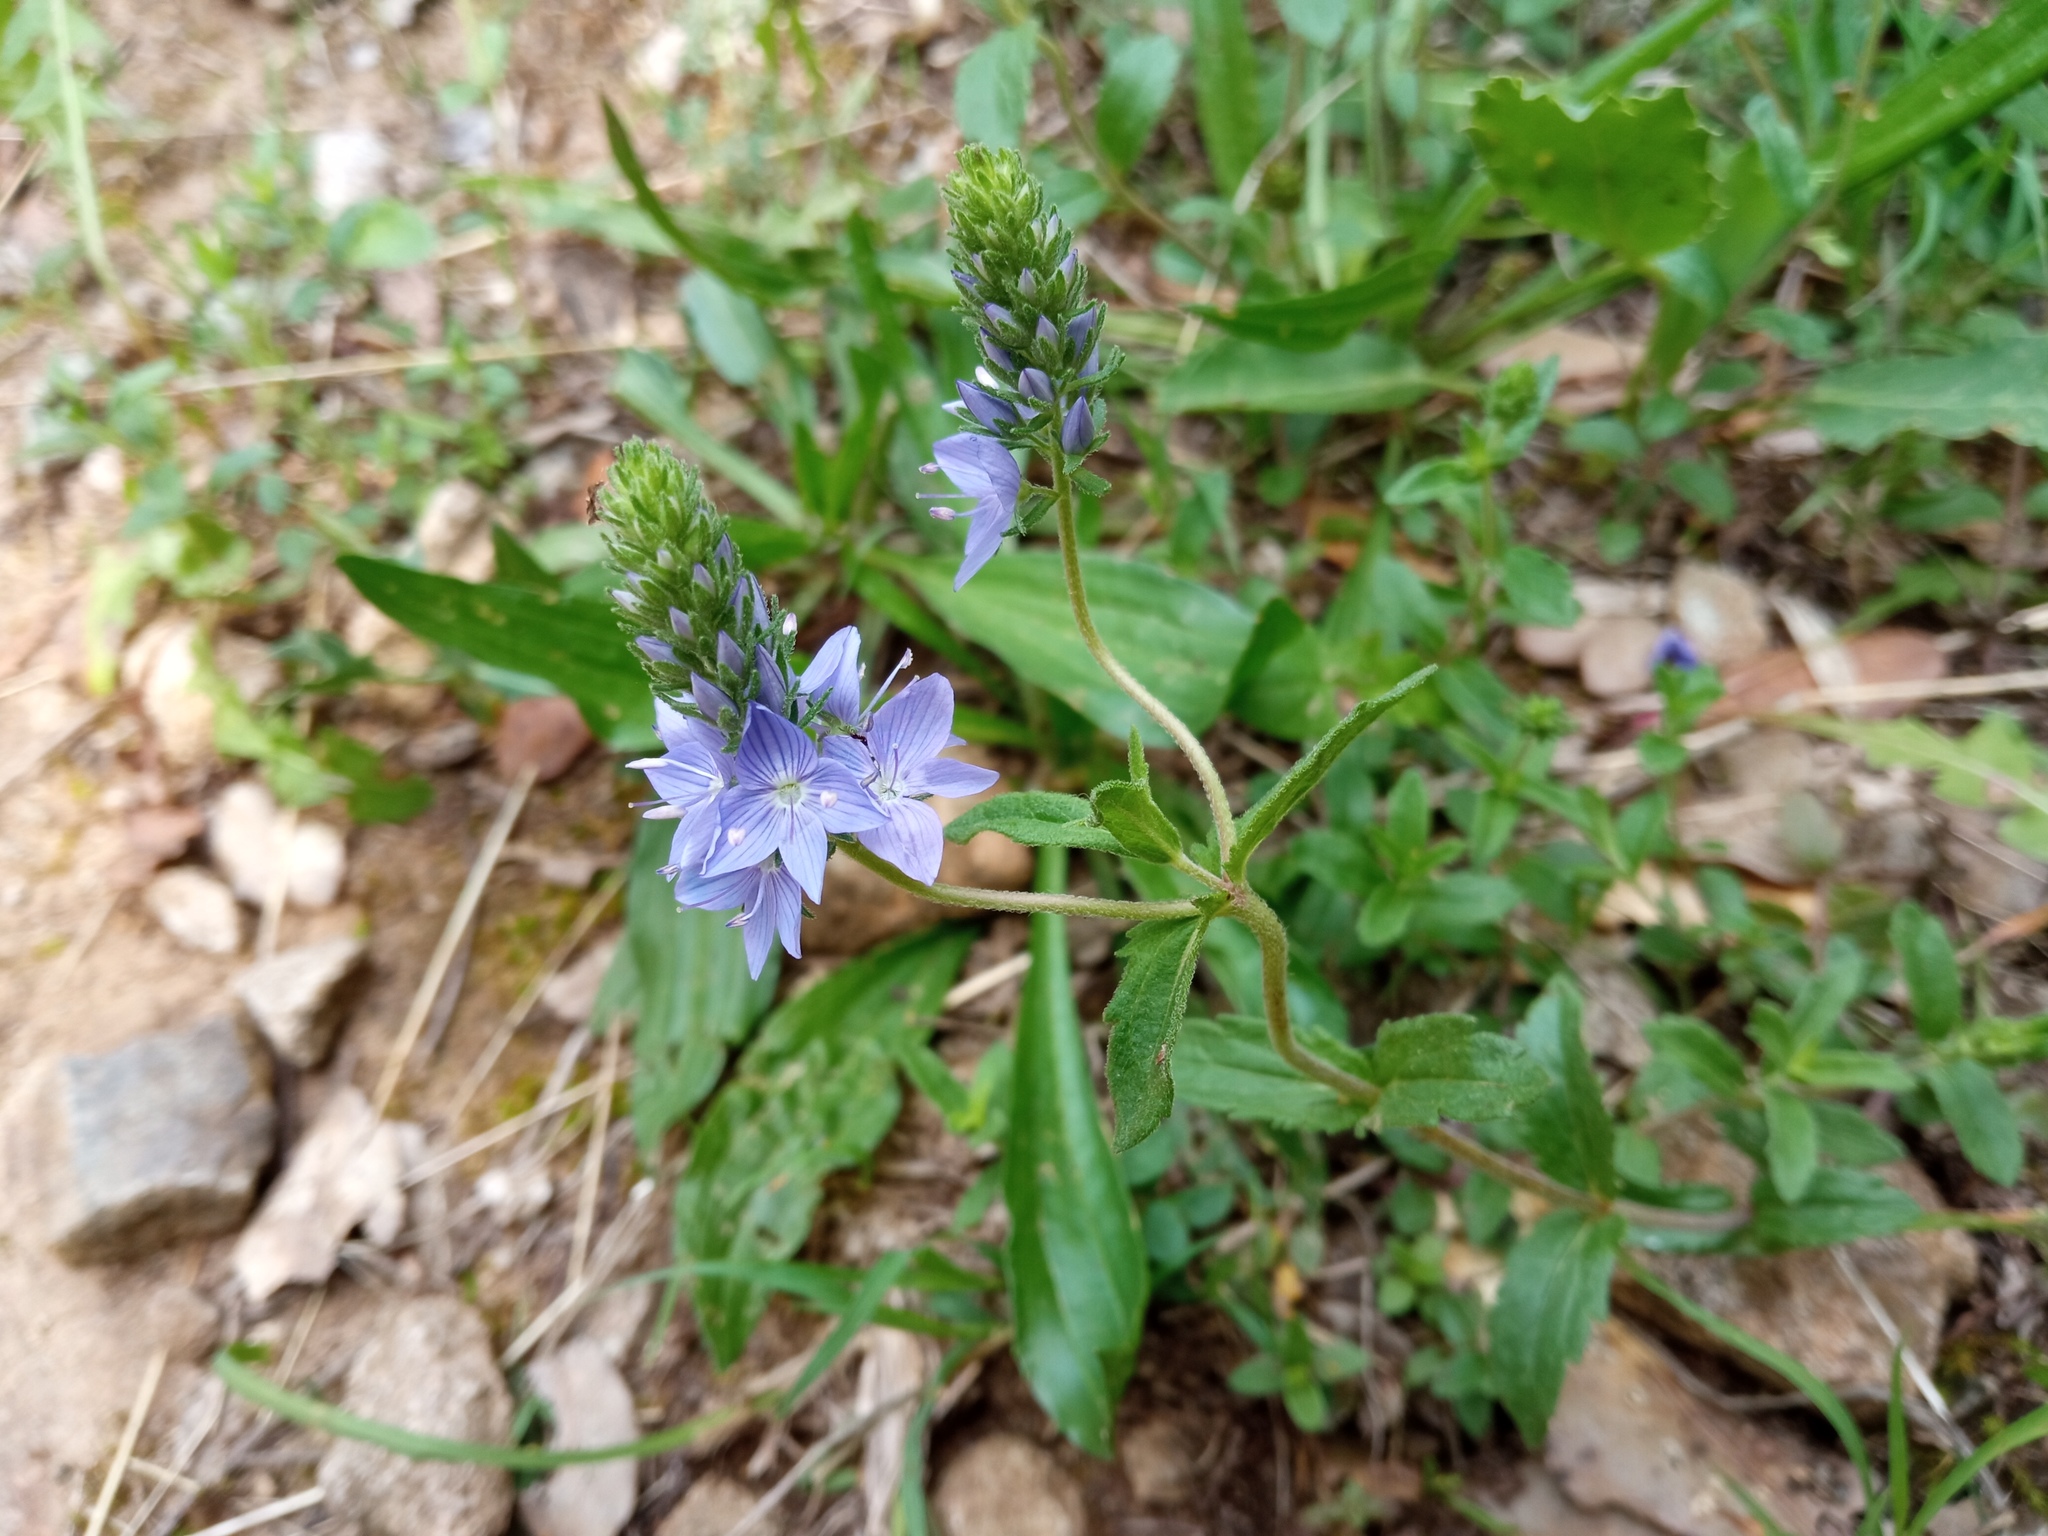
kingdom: Plantae
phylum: Tracheophyta
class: Magnoliopsida
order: Lamiales
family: Plantaginaceae
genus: Veronica
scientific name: Veronica orsiniana
